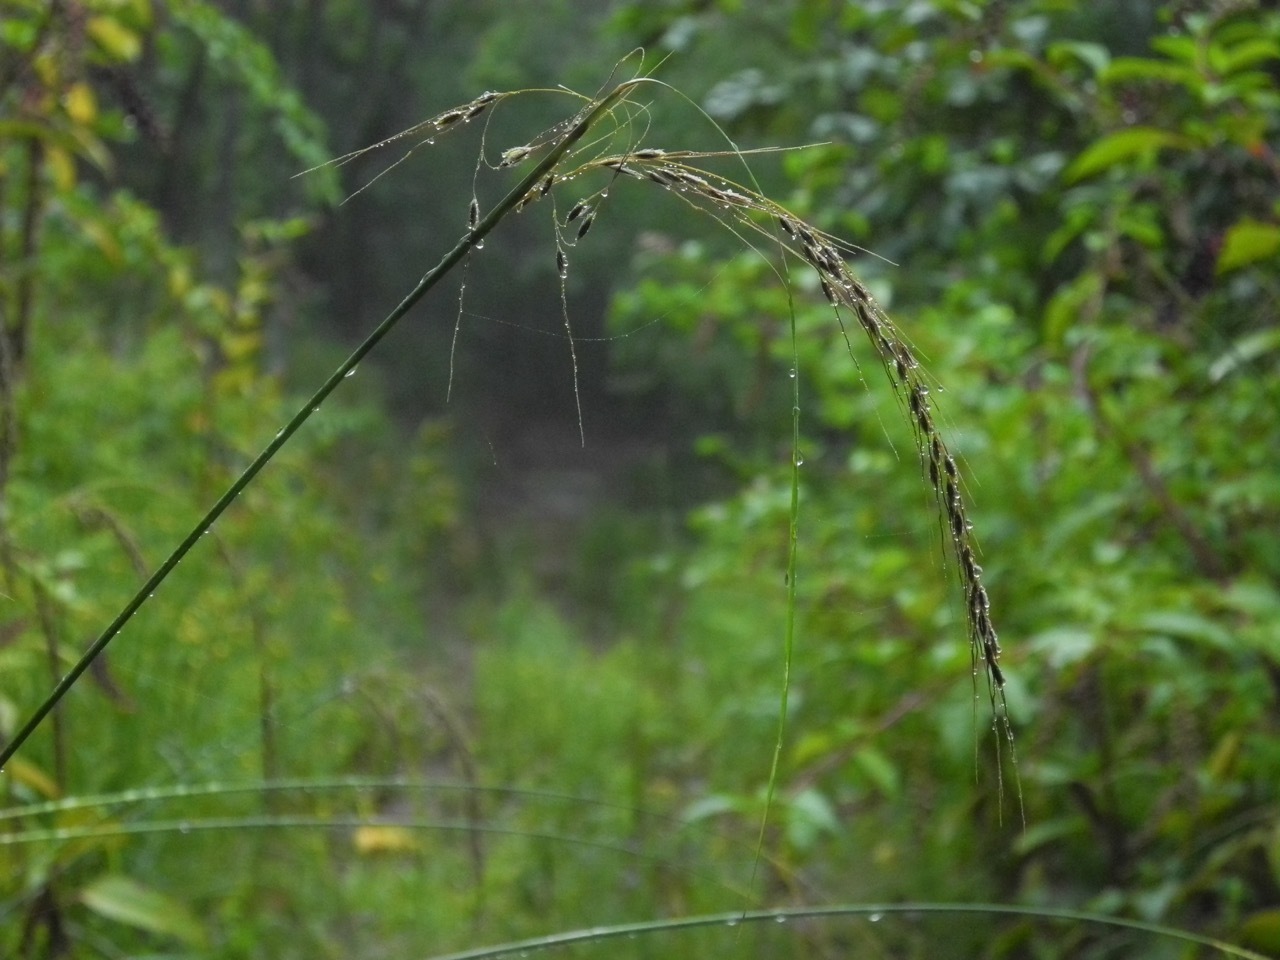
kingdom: Plantae
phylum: Tracheophyta
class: Liliopsida
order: Poales
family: Poaceae
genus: Sorghastrum
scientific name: Sorghastrum elliottii
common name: Slender indian grass
